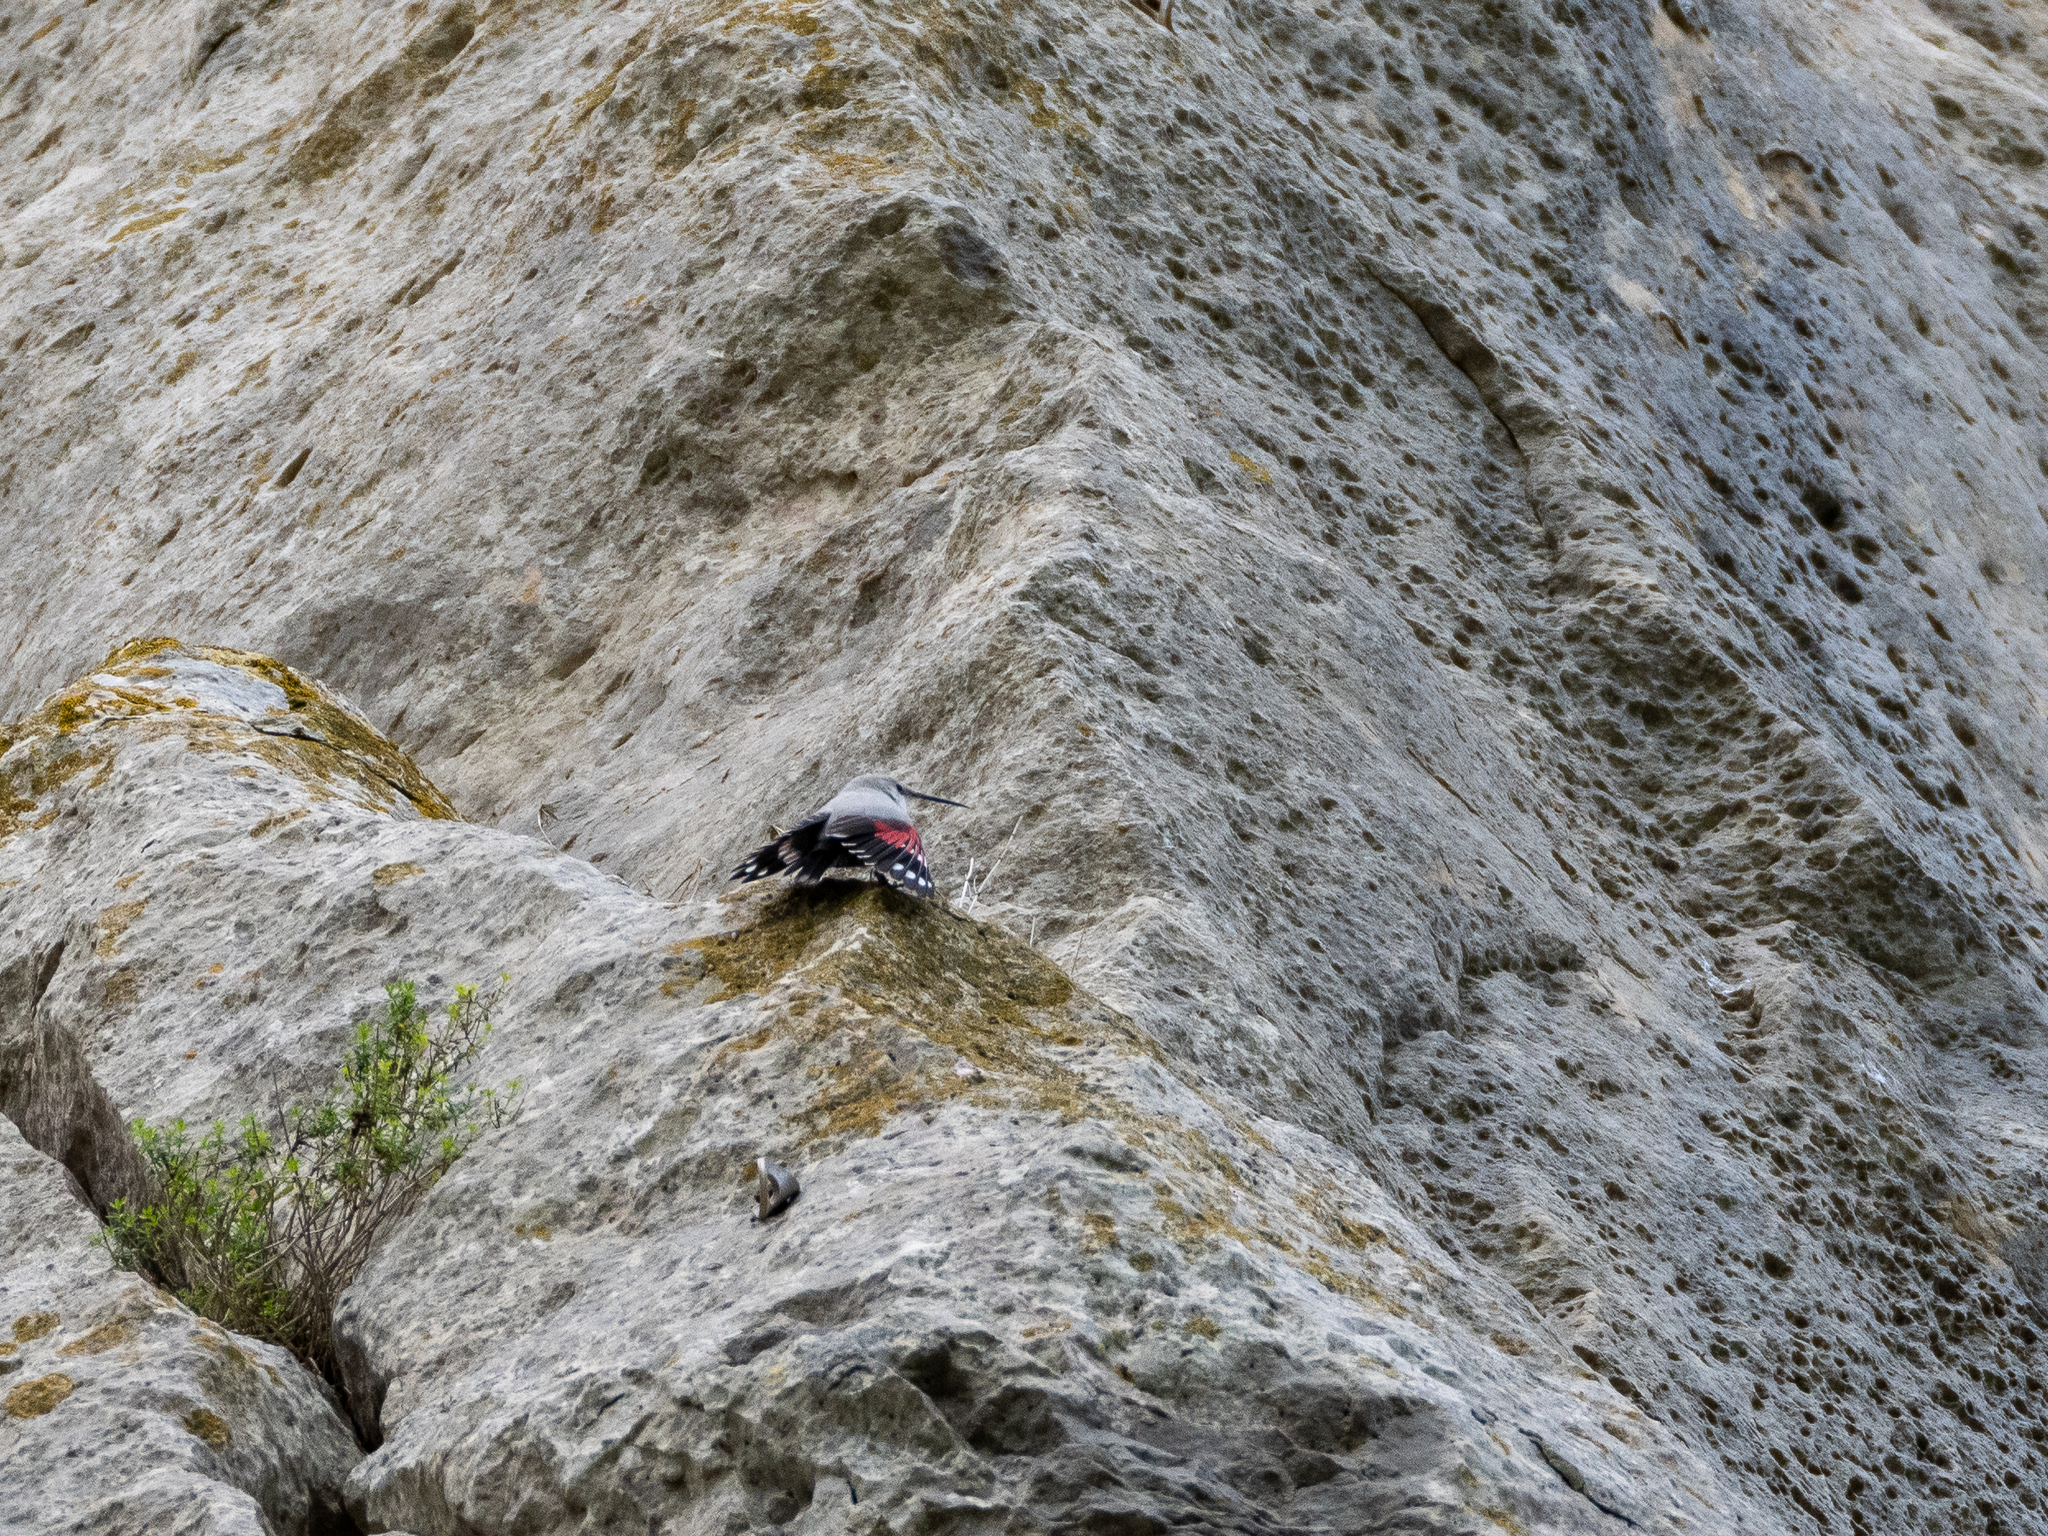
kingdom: Animalia
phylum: Chordata
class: Aves
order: Passeriformes
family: Tichodromidae
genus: Tichodroma
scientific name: Tichodroma muraria
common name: Wallcreeper
